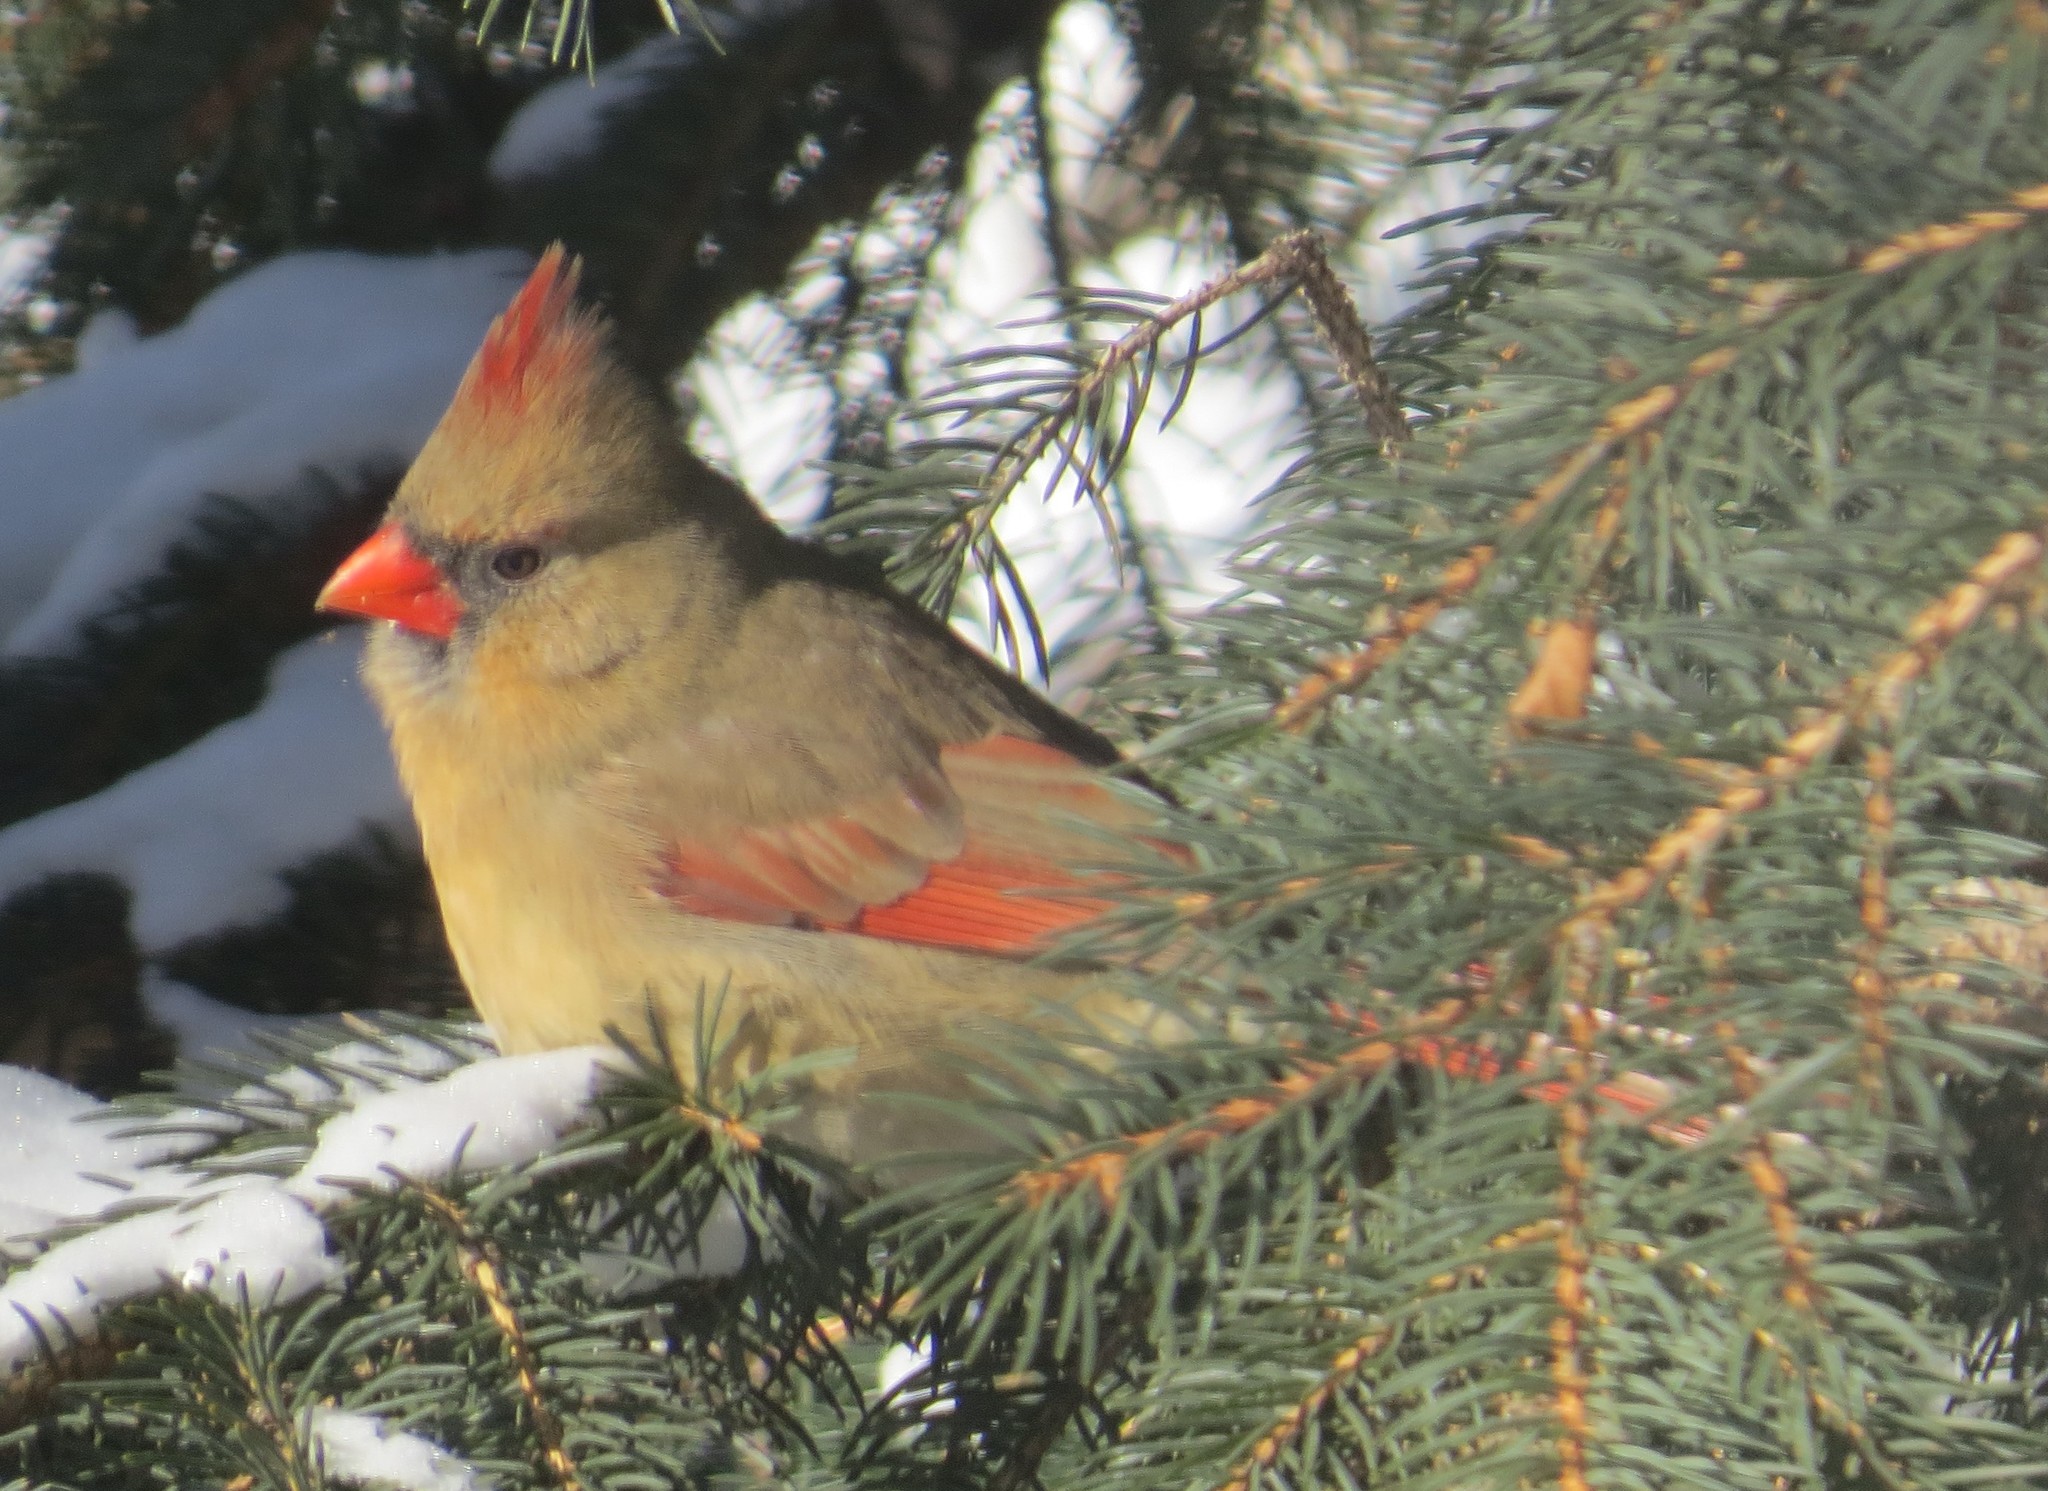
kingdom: Animalia
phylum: Chordata
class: Aves
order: Passeriformes
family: Cardinalidae
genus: Cardinalis
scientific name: Cardinalis cardinalis
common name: Northern cardinal
